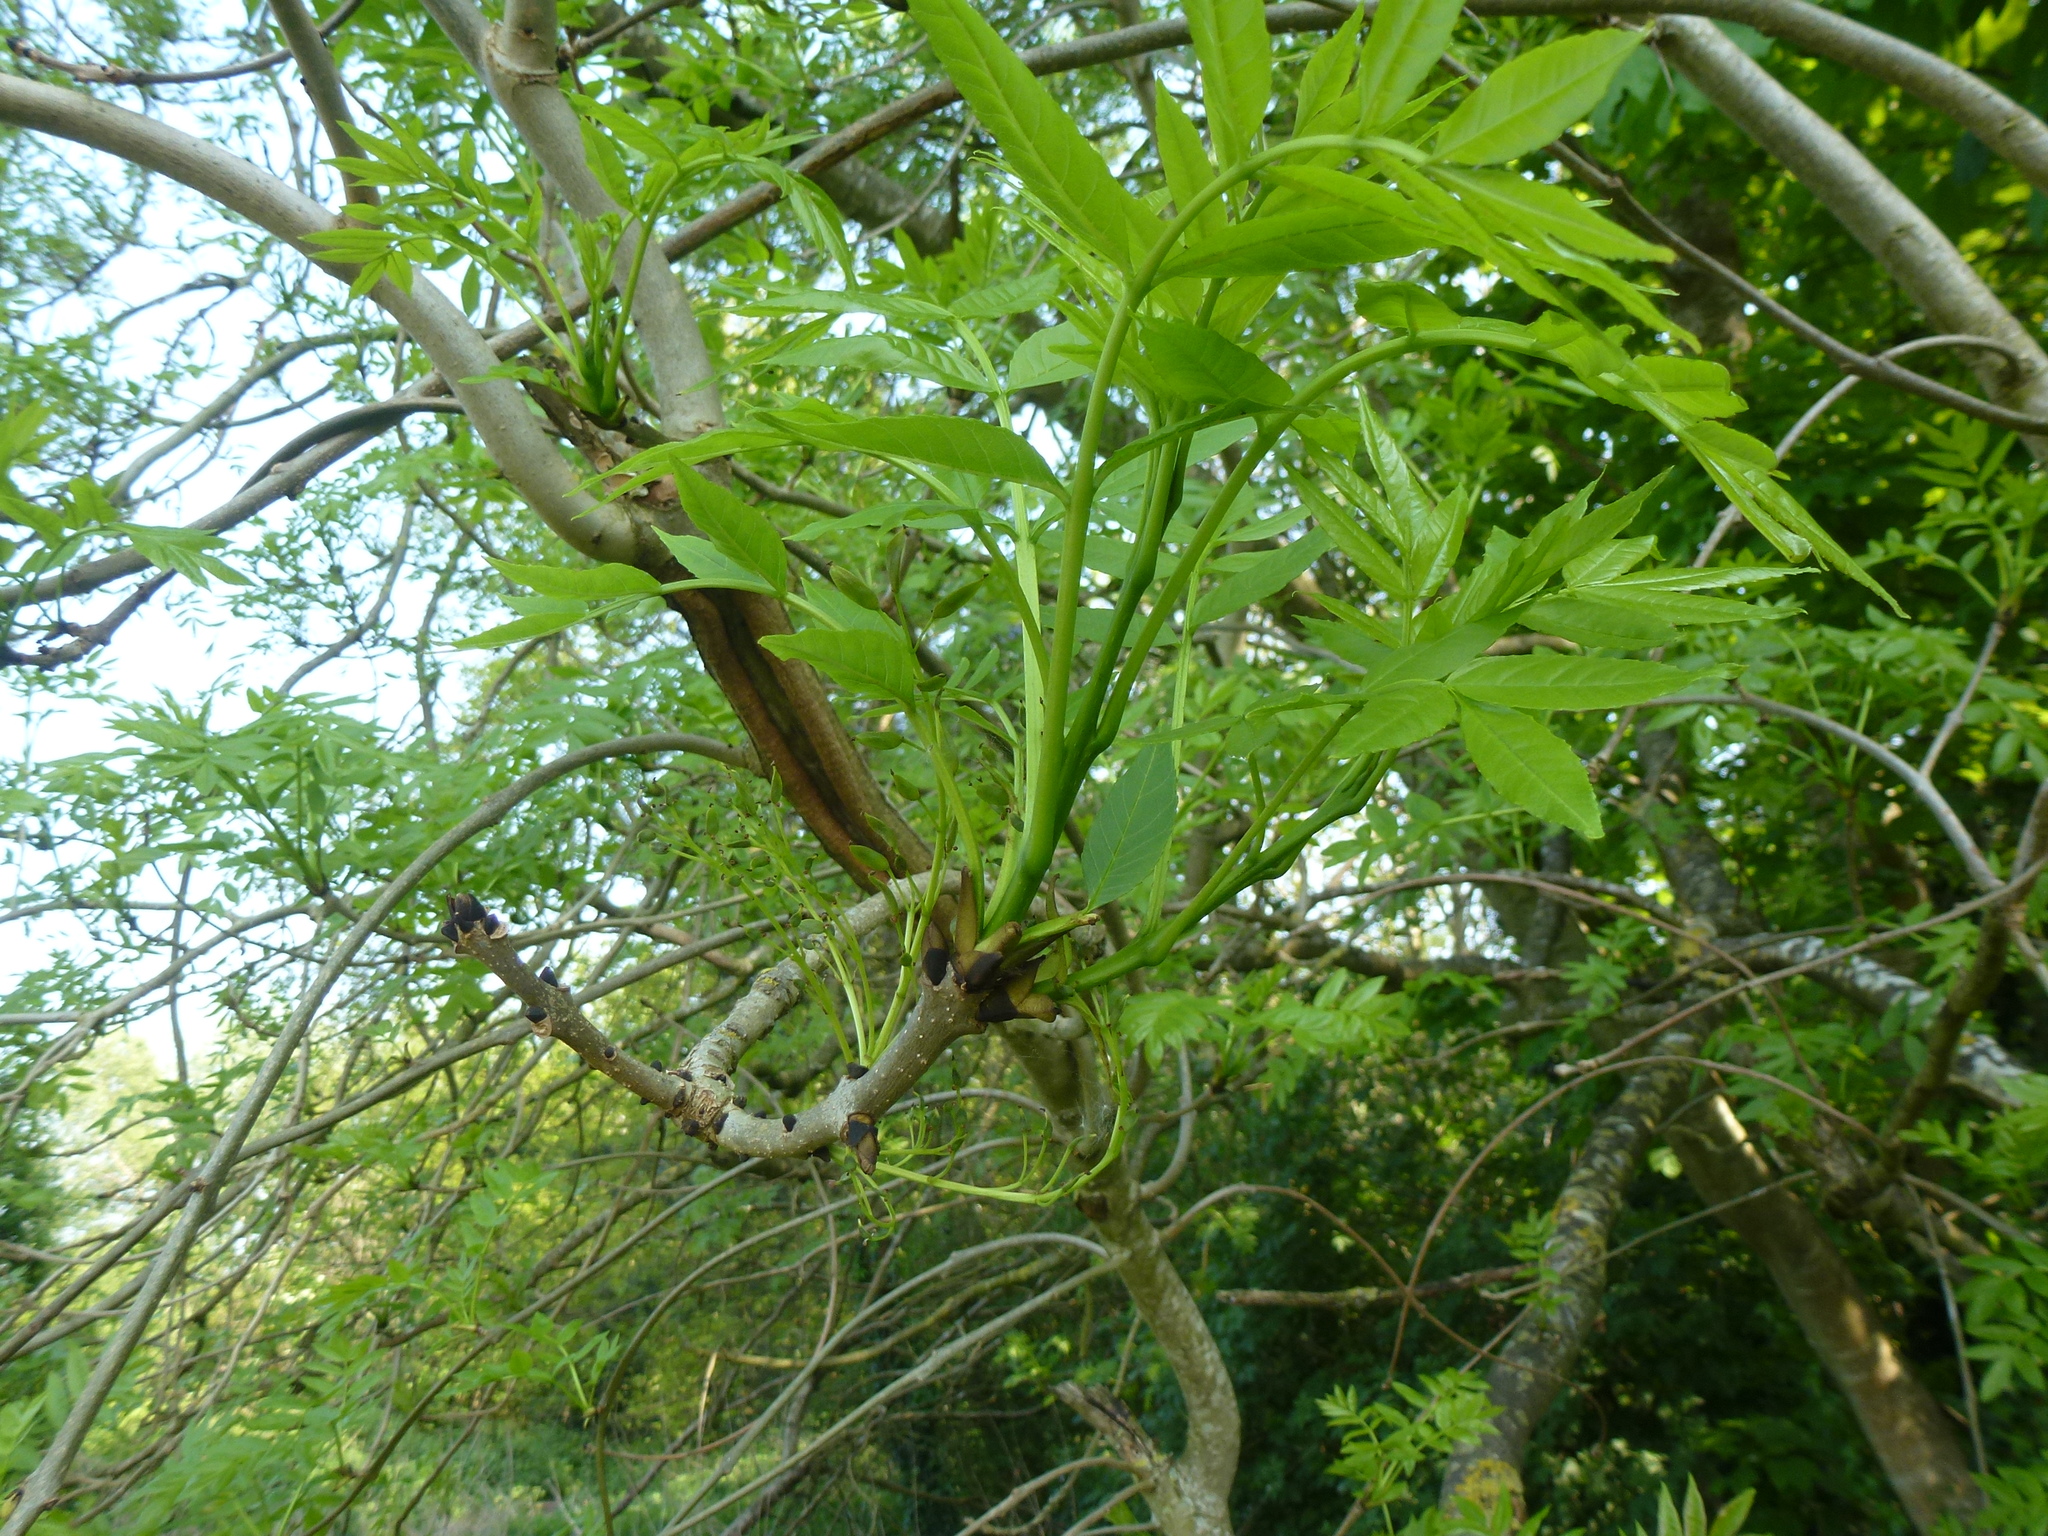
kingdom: Plantae
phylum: Tracheophyta
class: Magnoliopsida
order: Lamiales
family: Oleaceae
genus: Fraxinus
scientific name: Fraxinus excelsior
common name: European ash
